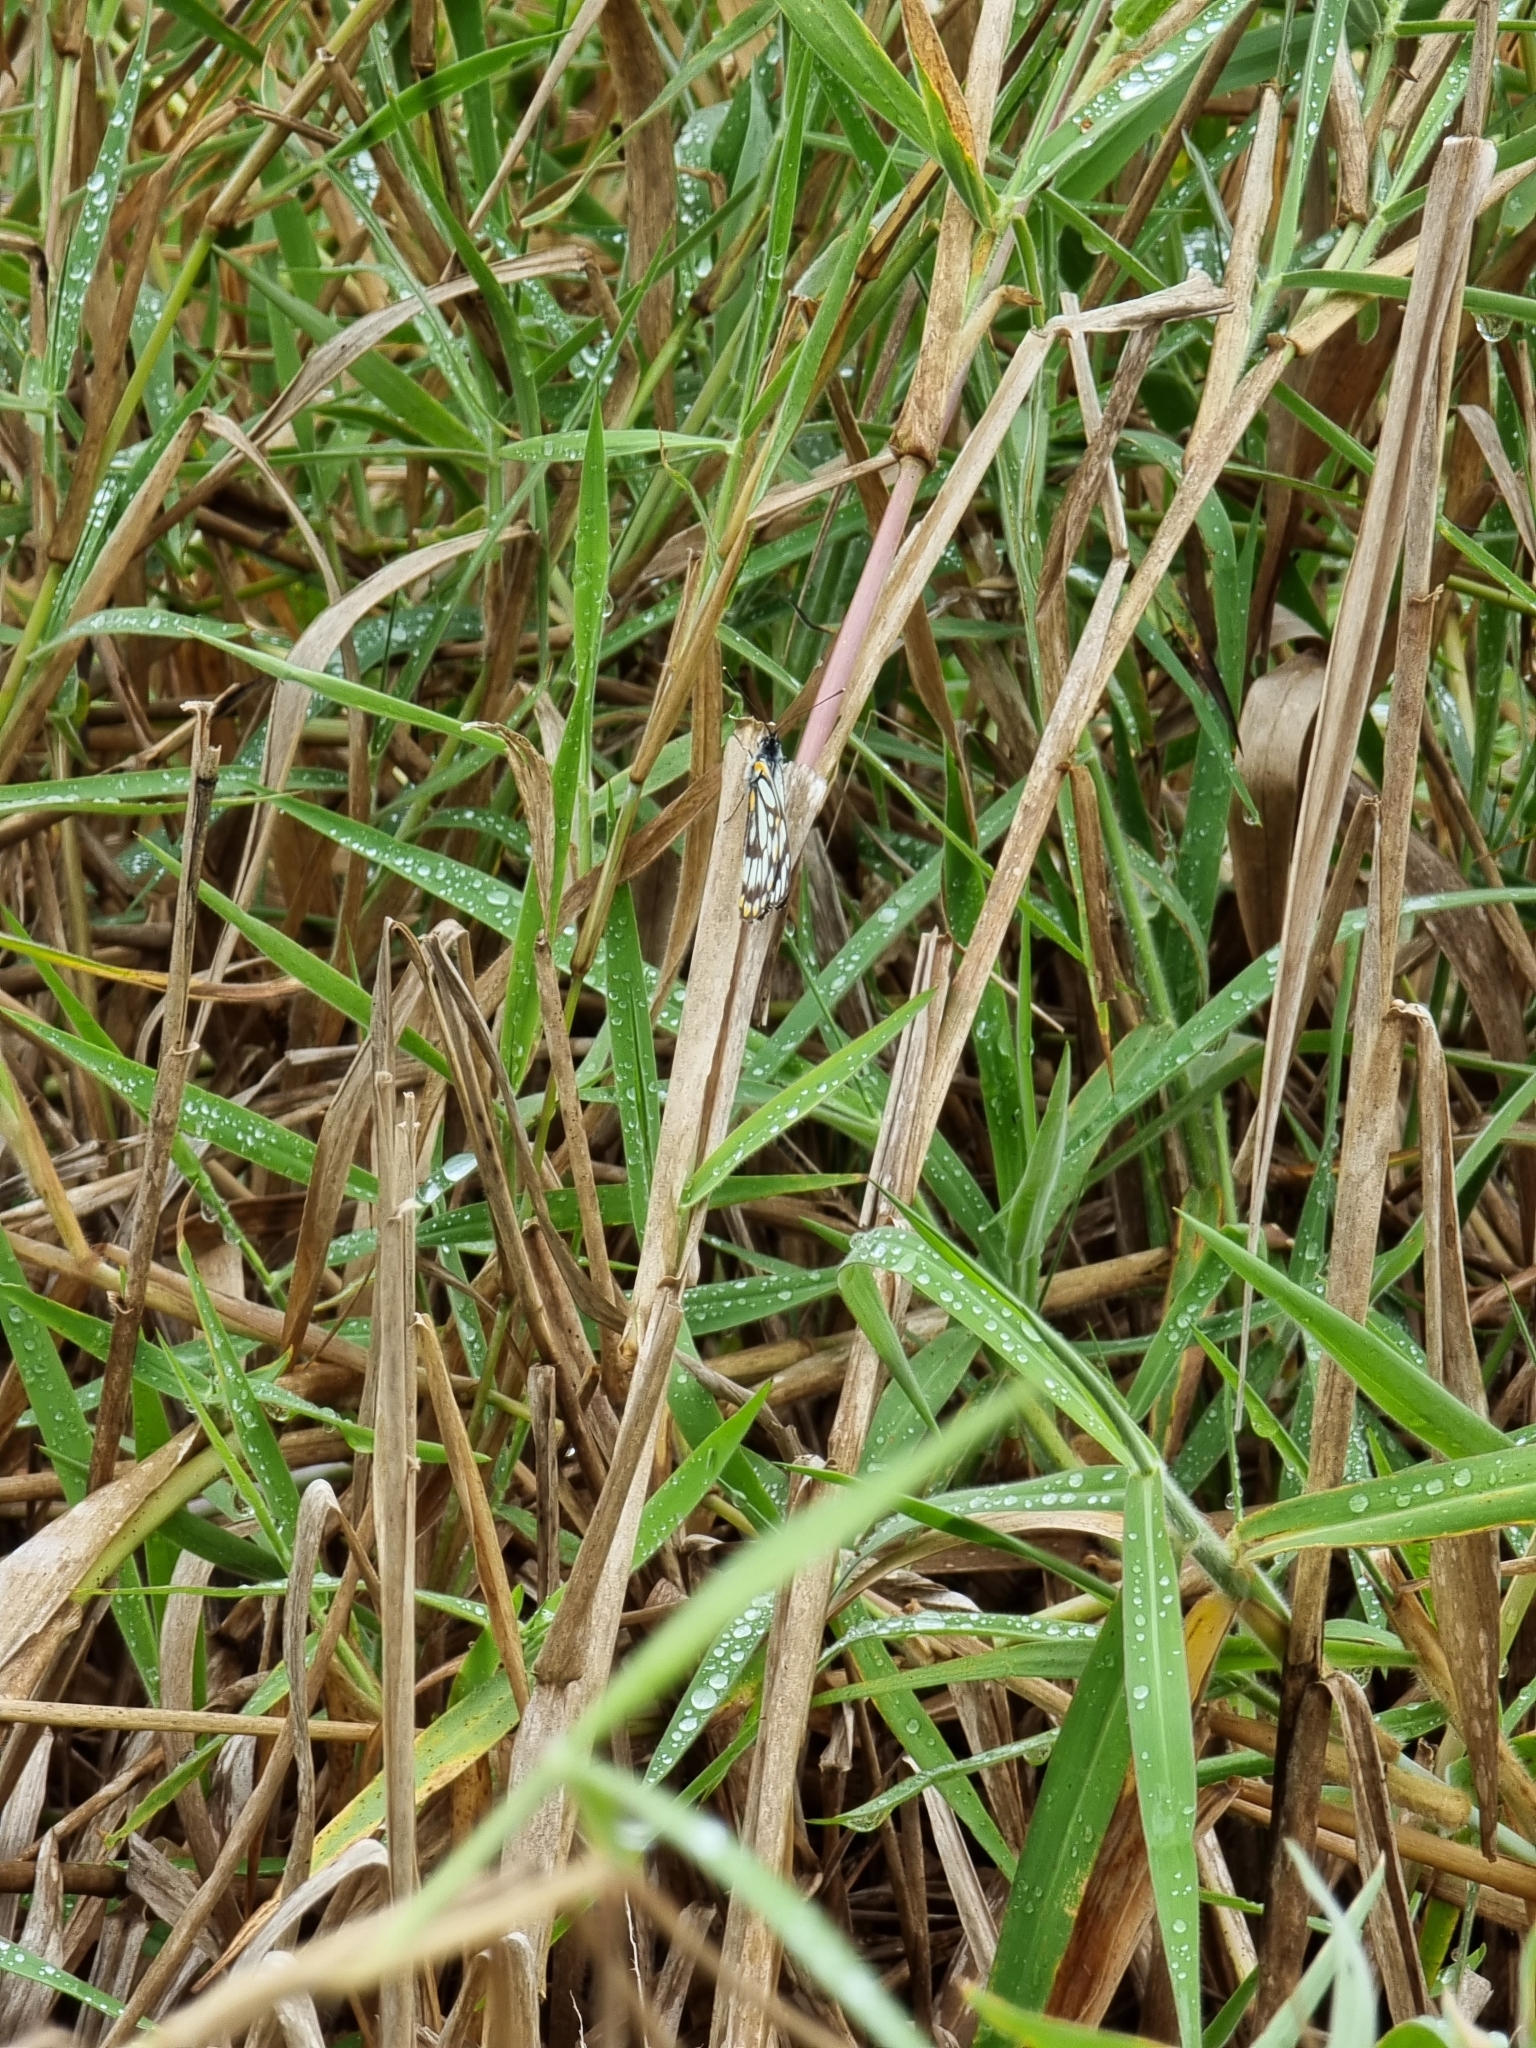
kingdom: Animalia
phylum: Arthropoda
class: Insecta
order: Lepidoptera
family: Pieridae
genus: Belenois
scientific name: Belenois java
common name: Caper white
